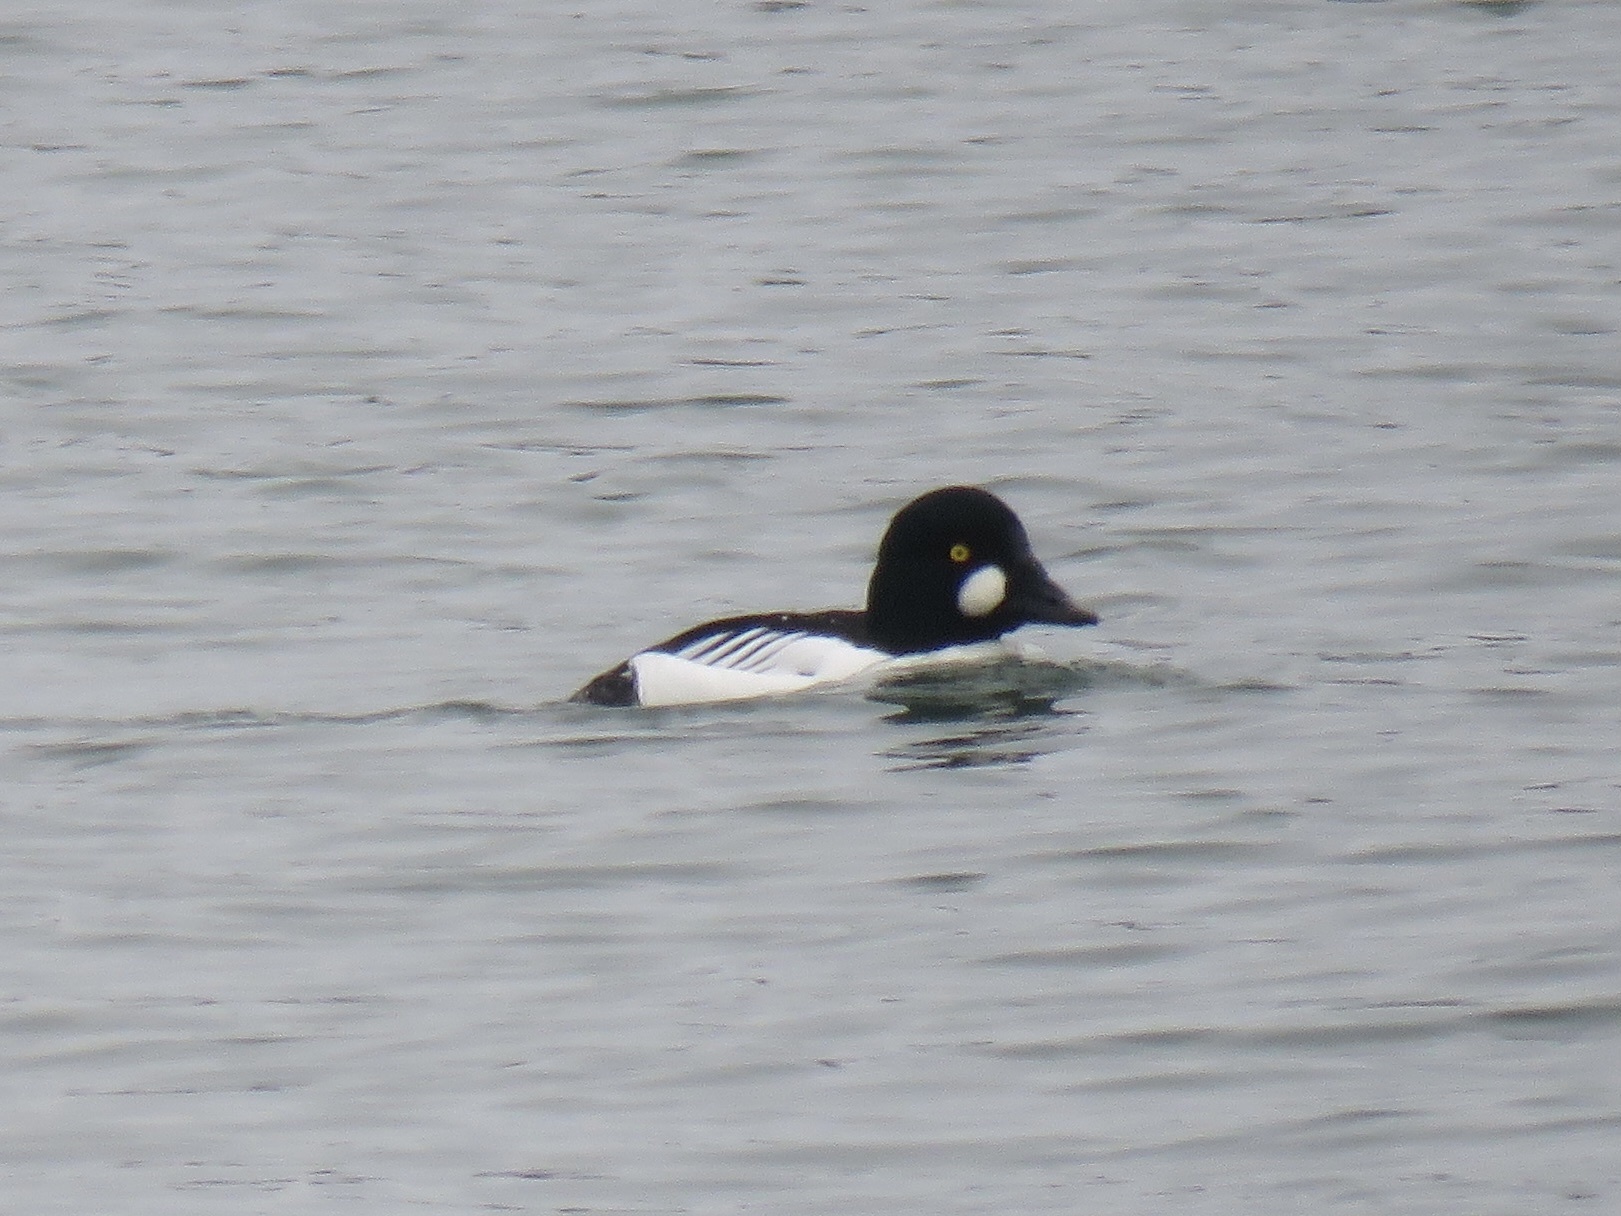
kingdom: Animalia
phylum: Chordata
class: Aves
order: Anseriformes
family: Anatidae
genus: Bucephala
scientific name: Bucephala clangula
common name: Common goldeneye
